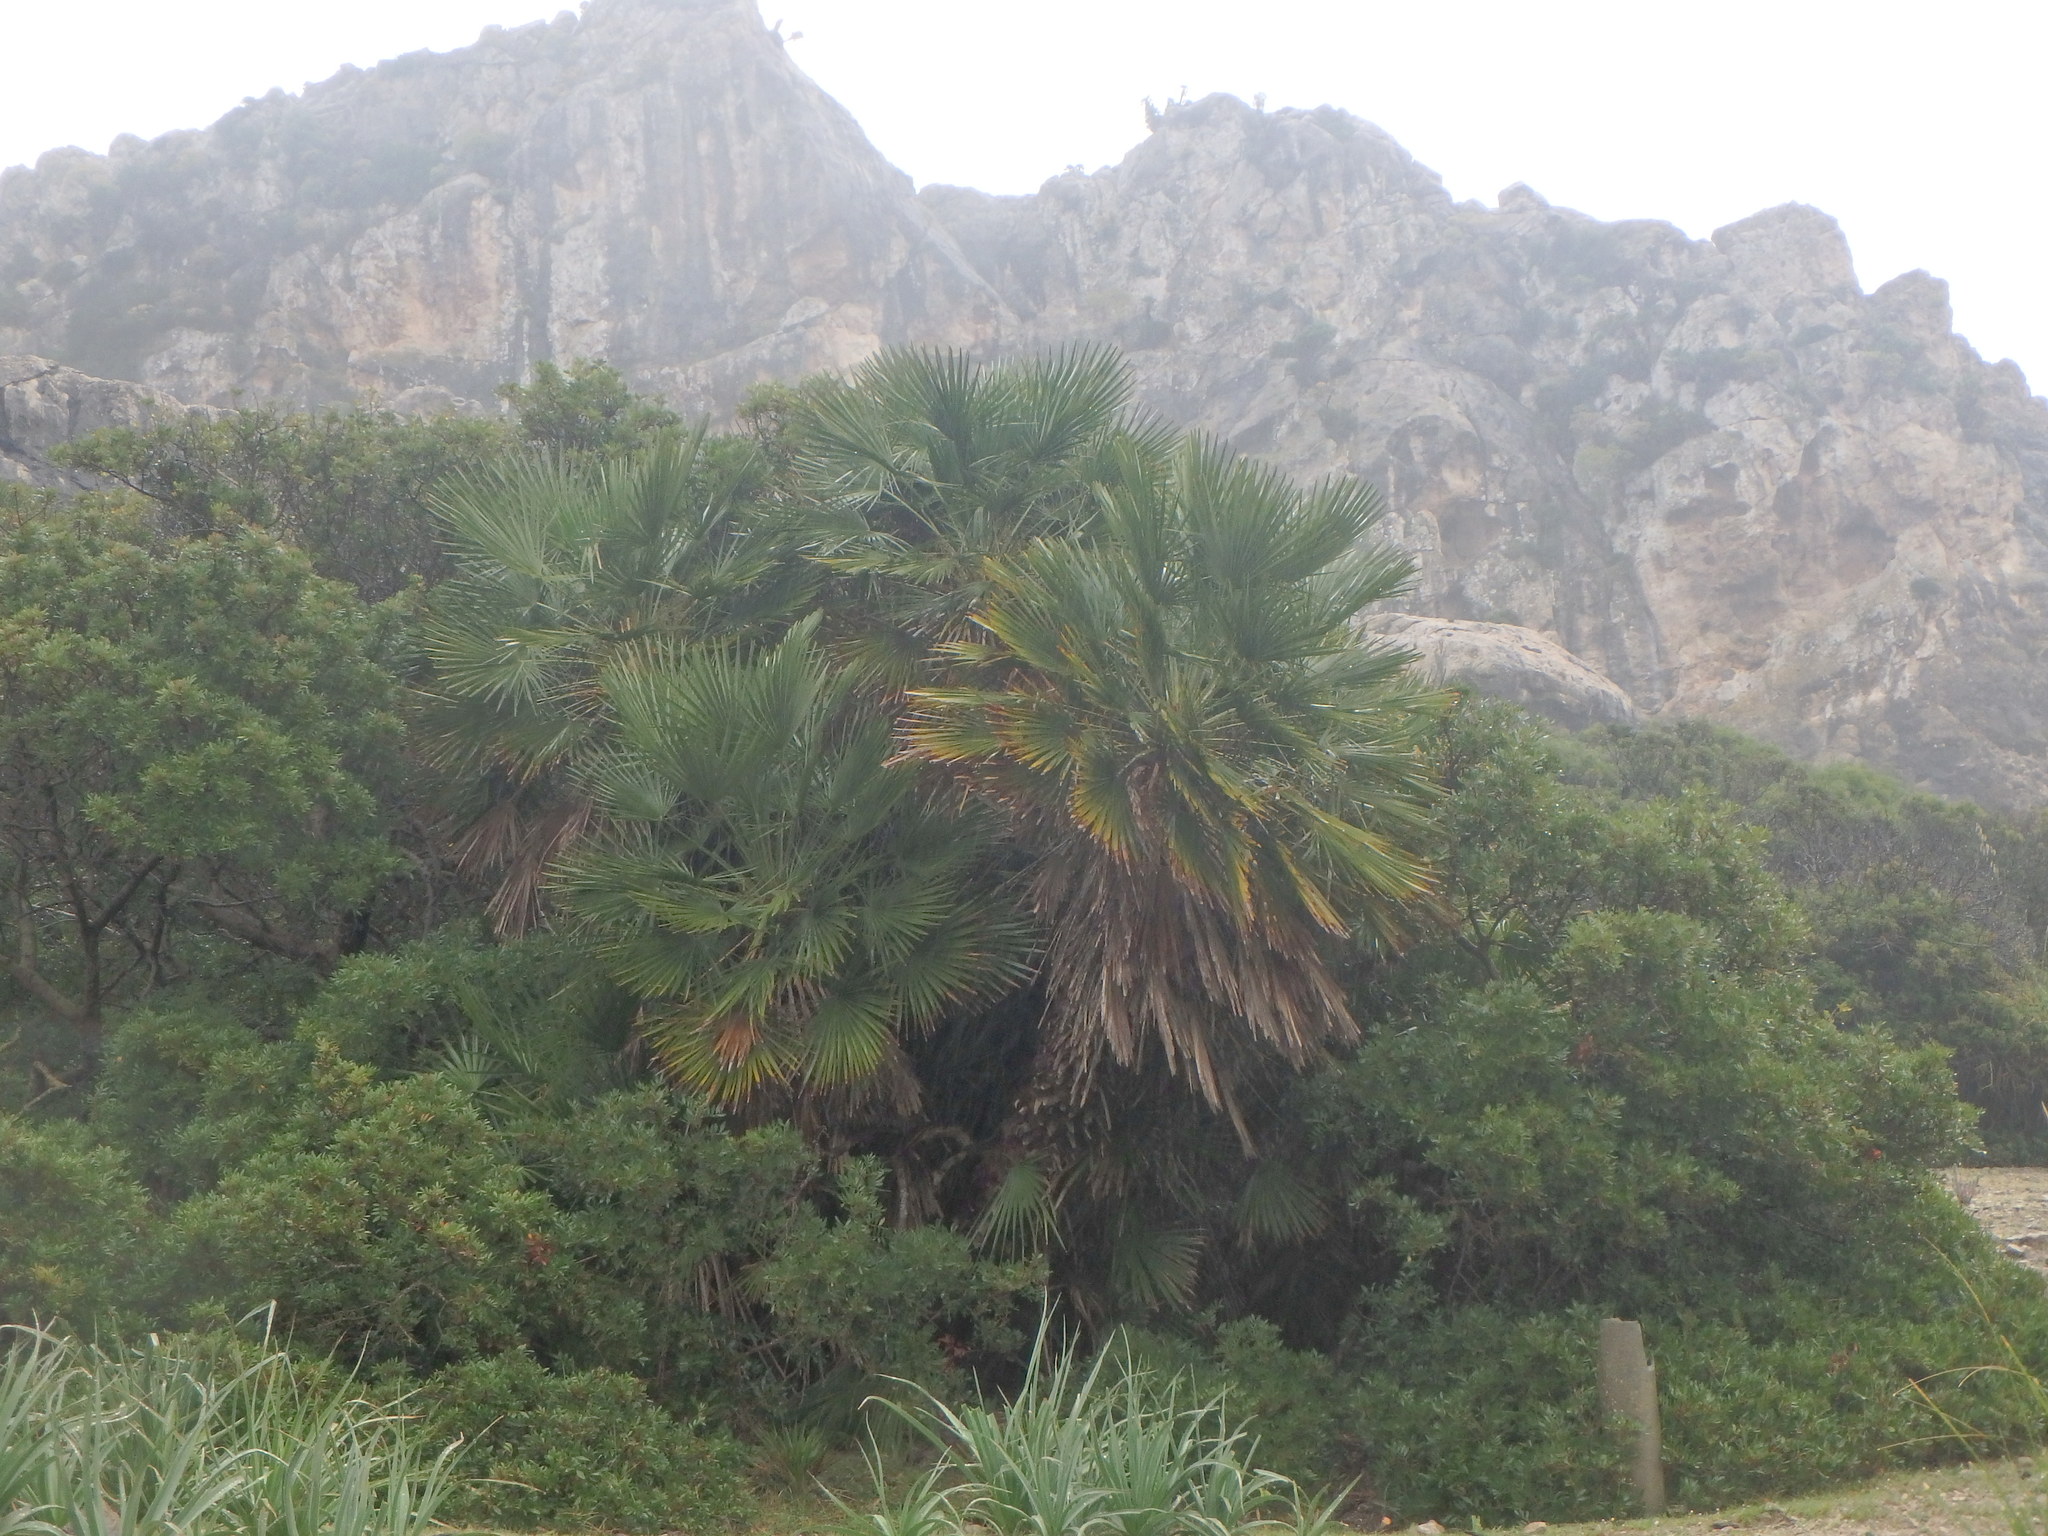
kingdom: Plantae
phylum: Tracheophyta
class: Liliopsida
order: Arecales
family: Arecaceae
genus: Chamaerops
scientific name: Chamaerops humilis
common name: Dwarf fan palm
